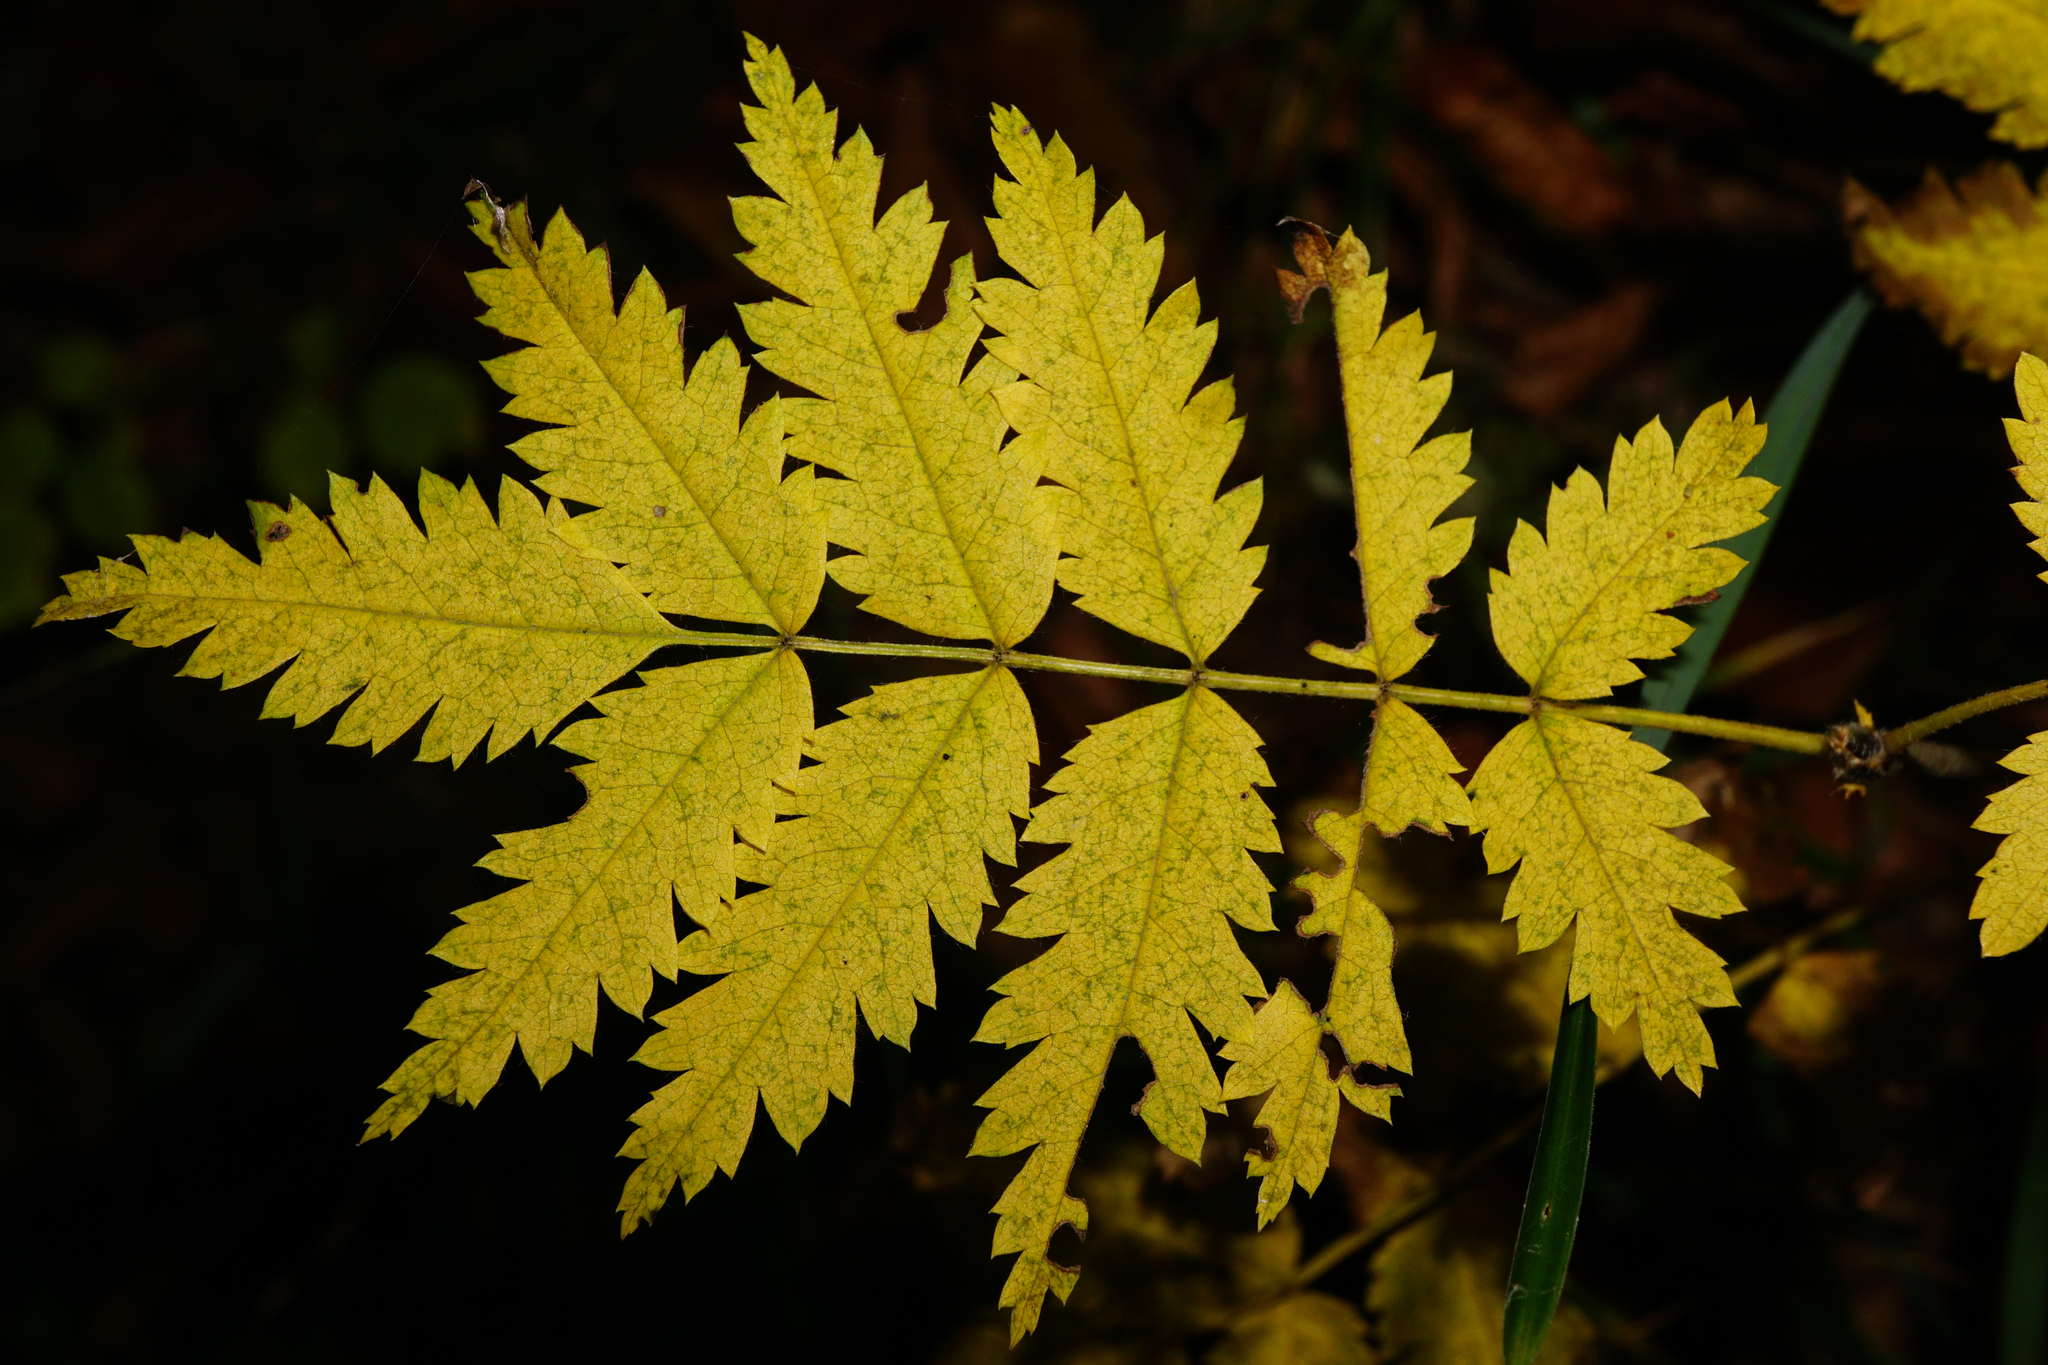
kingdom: Plantae
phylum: Tracheophyta
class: Magnoliopsida
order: Rosales
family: Rosaceae
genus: Sorbus
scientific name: Sorbus aucuparia
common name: Rowan
